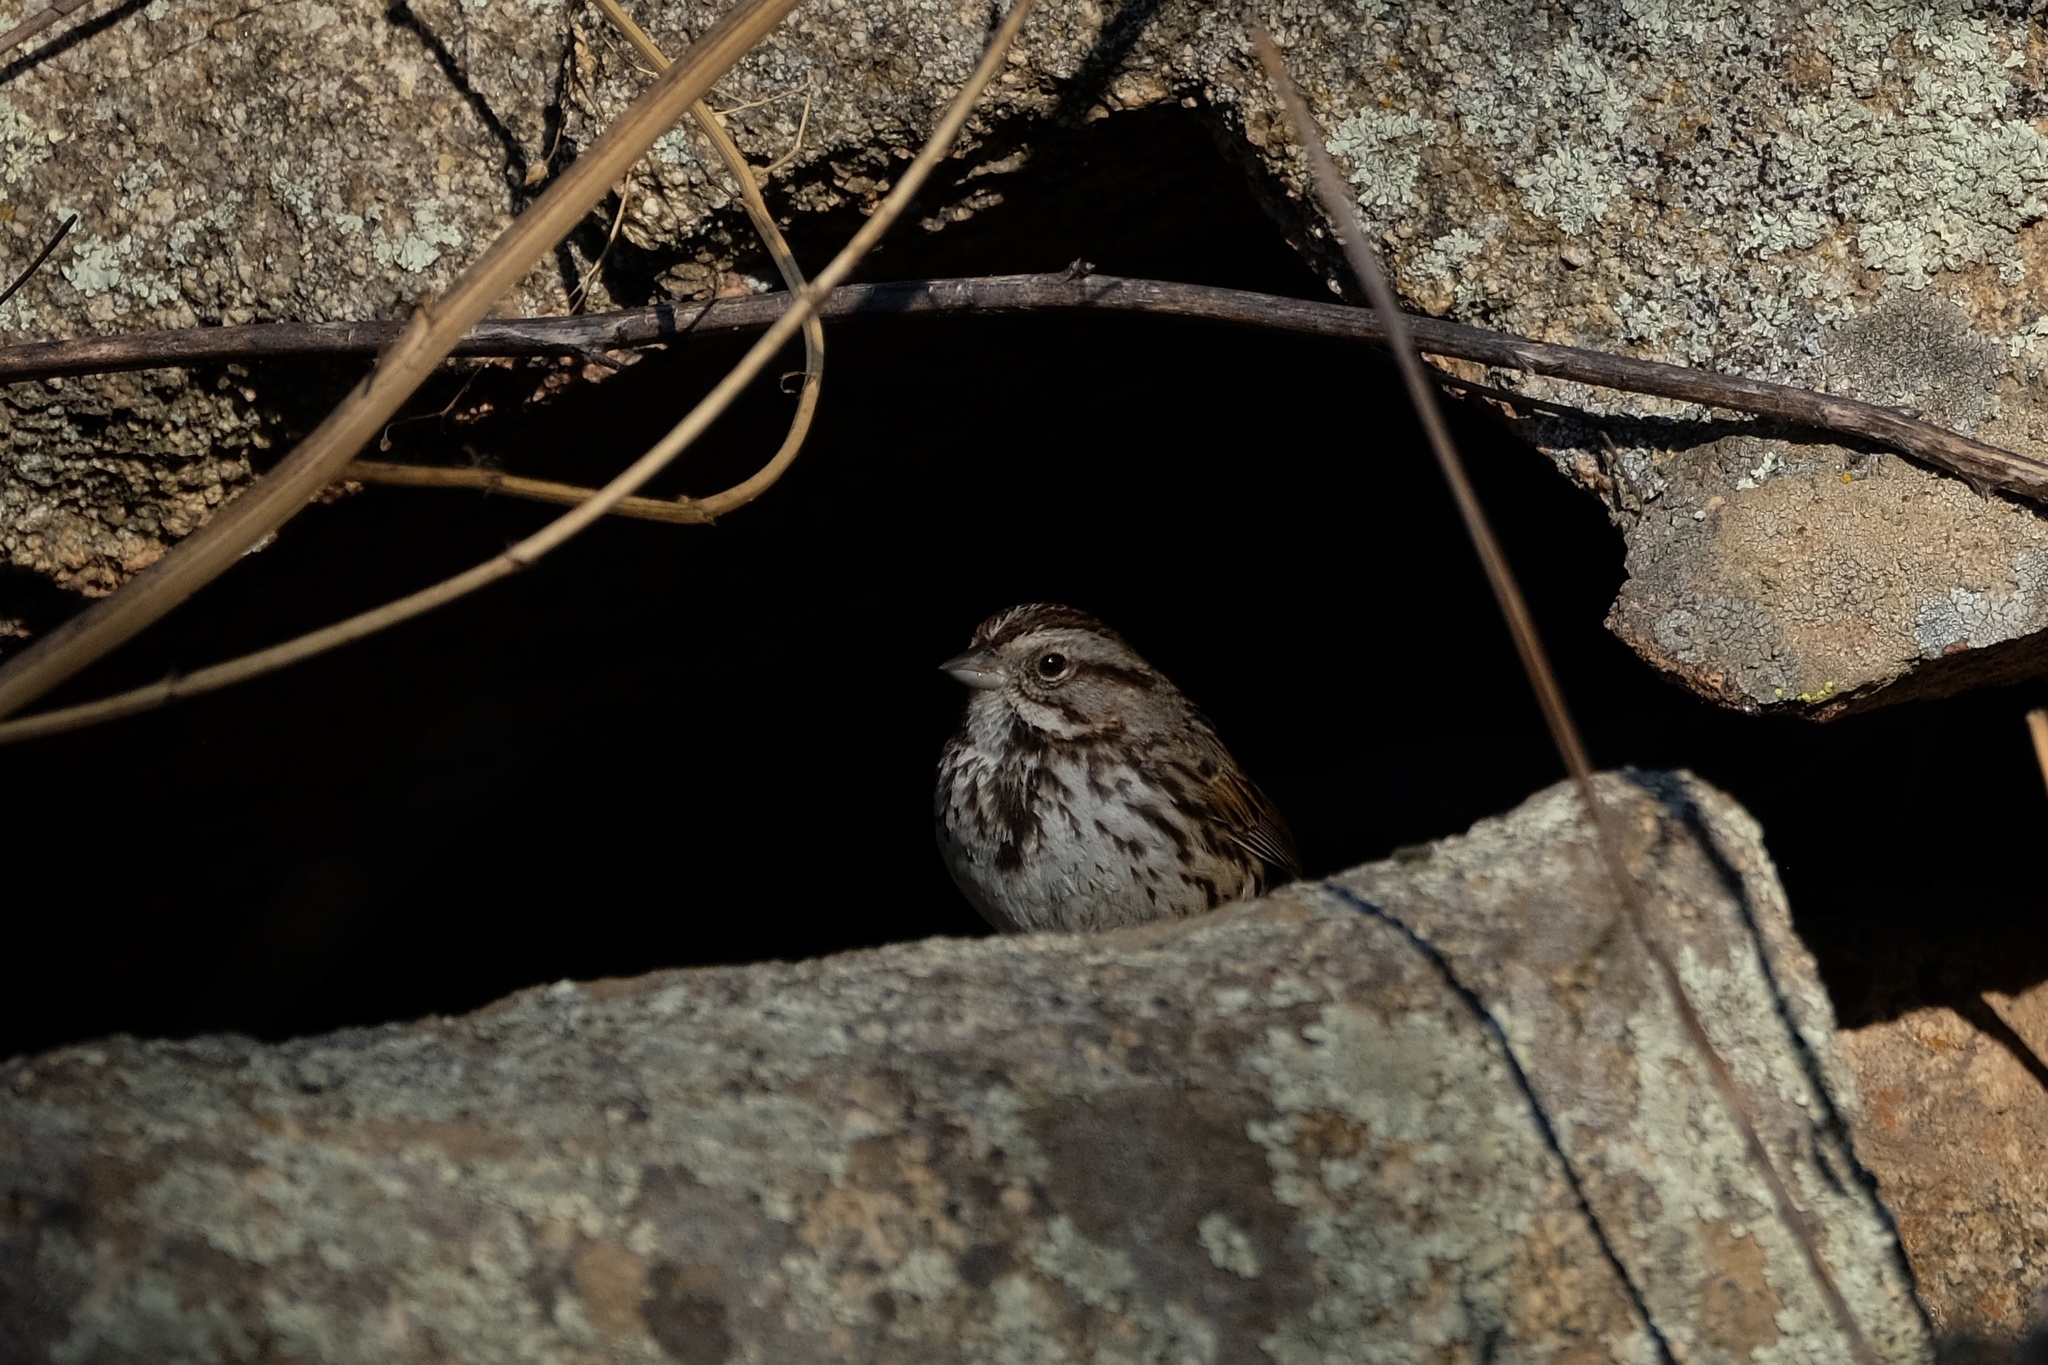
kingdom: Animalia
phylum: Chordata
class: Aves
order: Passeriformes
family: Passerellidae
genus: Melospiza
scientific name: Melospiza melodia
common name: Song sparrow
